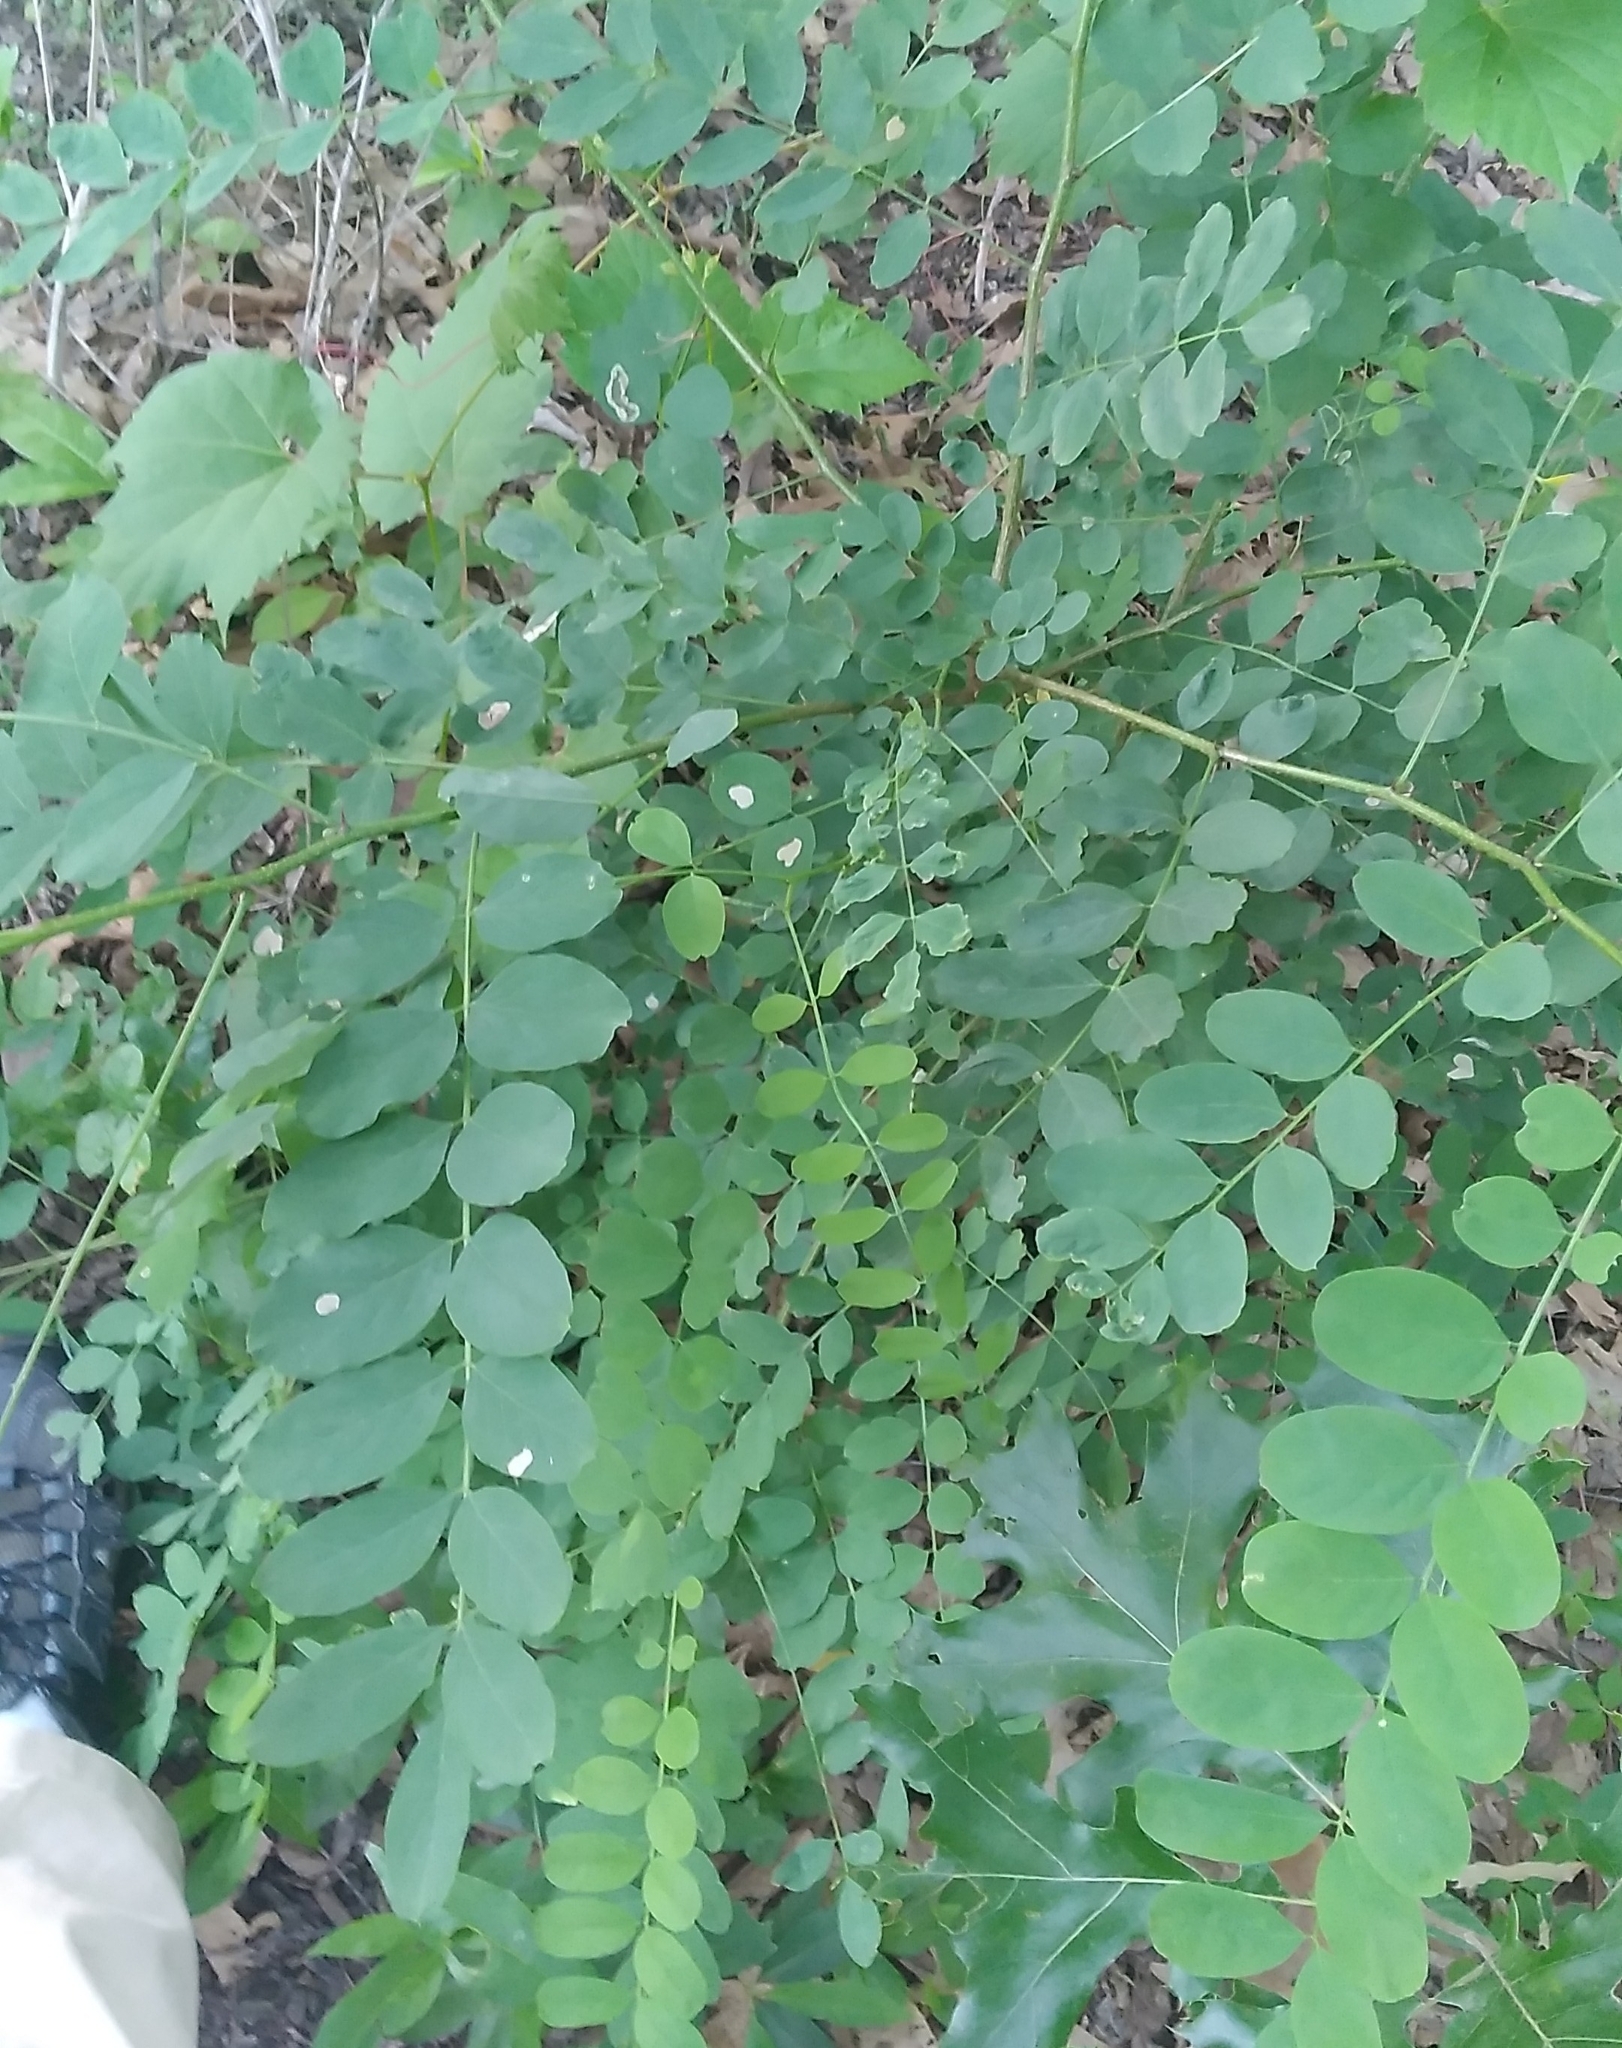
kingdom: Animalia
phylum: Arthropoda
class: Insecta
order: Lepidoptera
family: Gracillariidae
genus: Chrysaster
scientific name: Chrysaster ostensackenella
